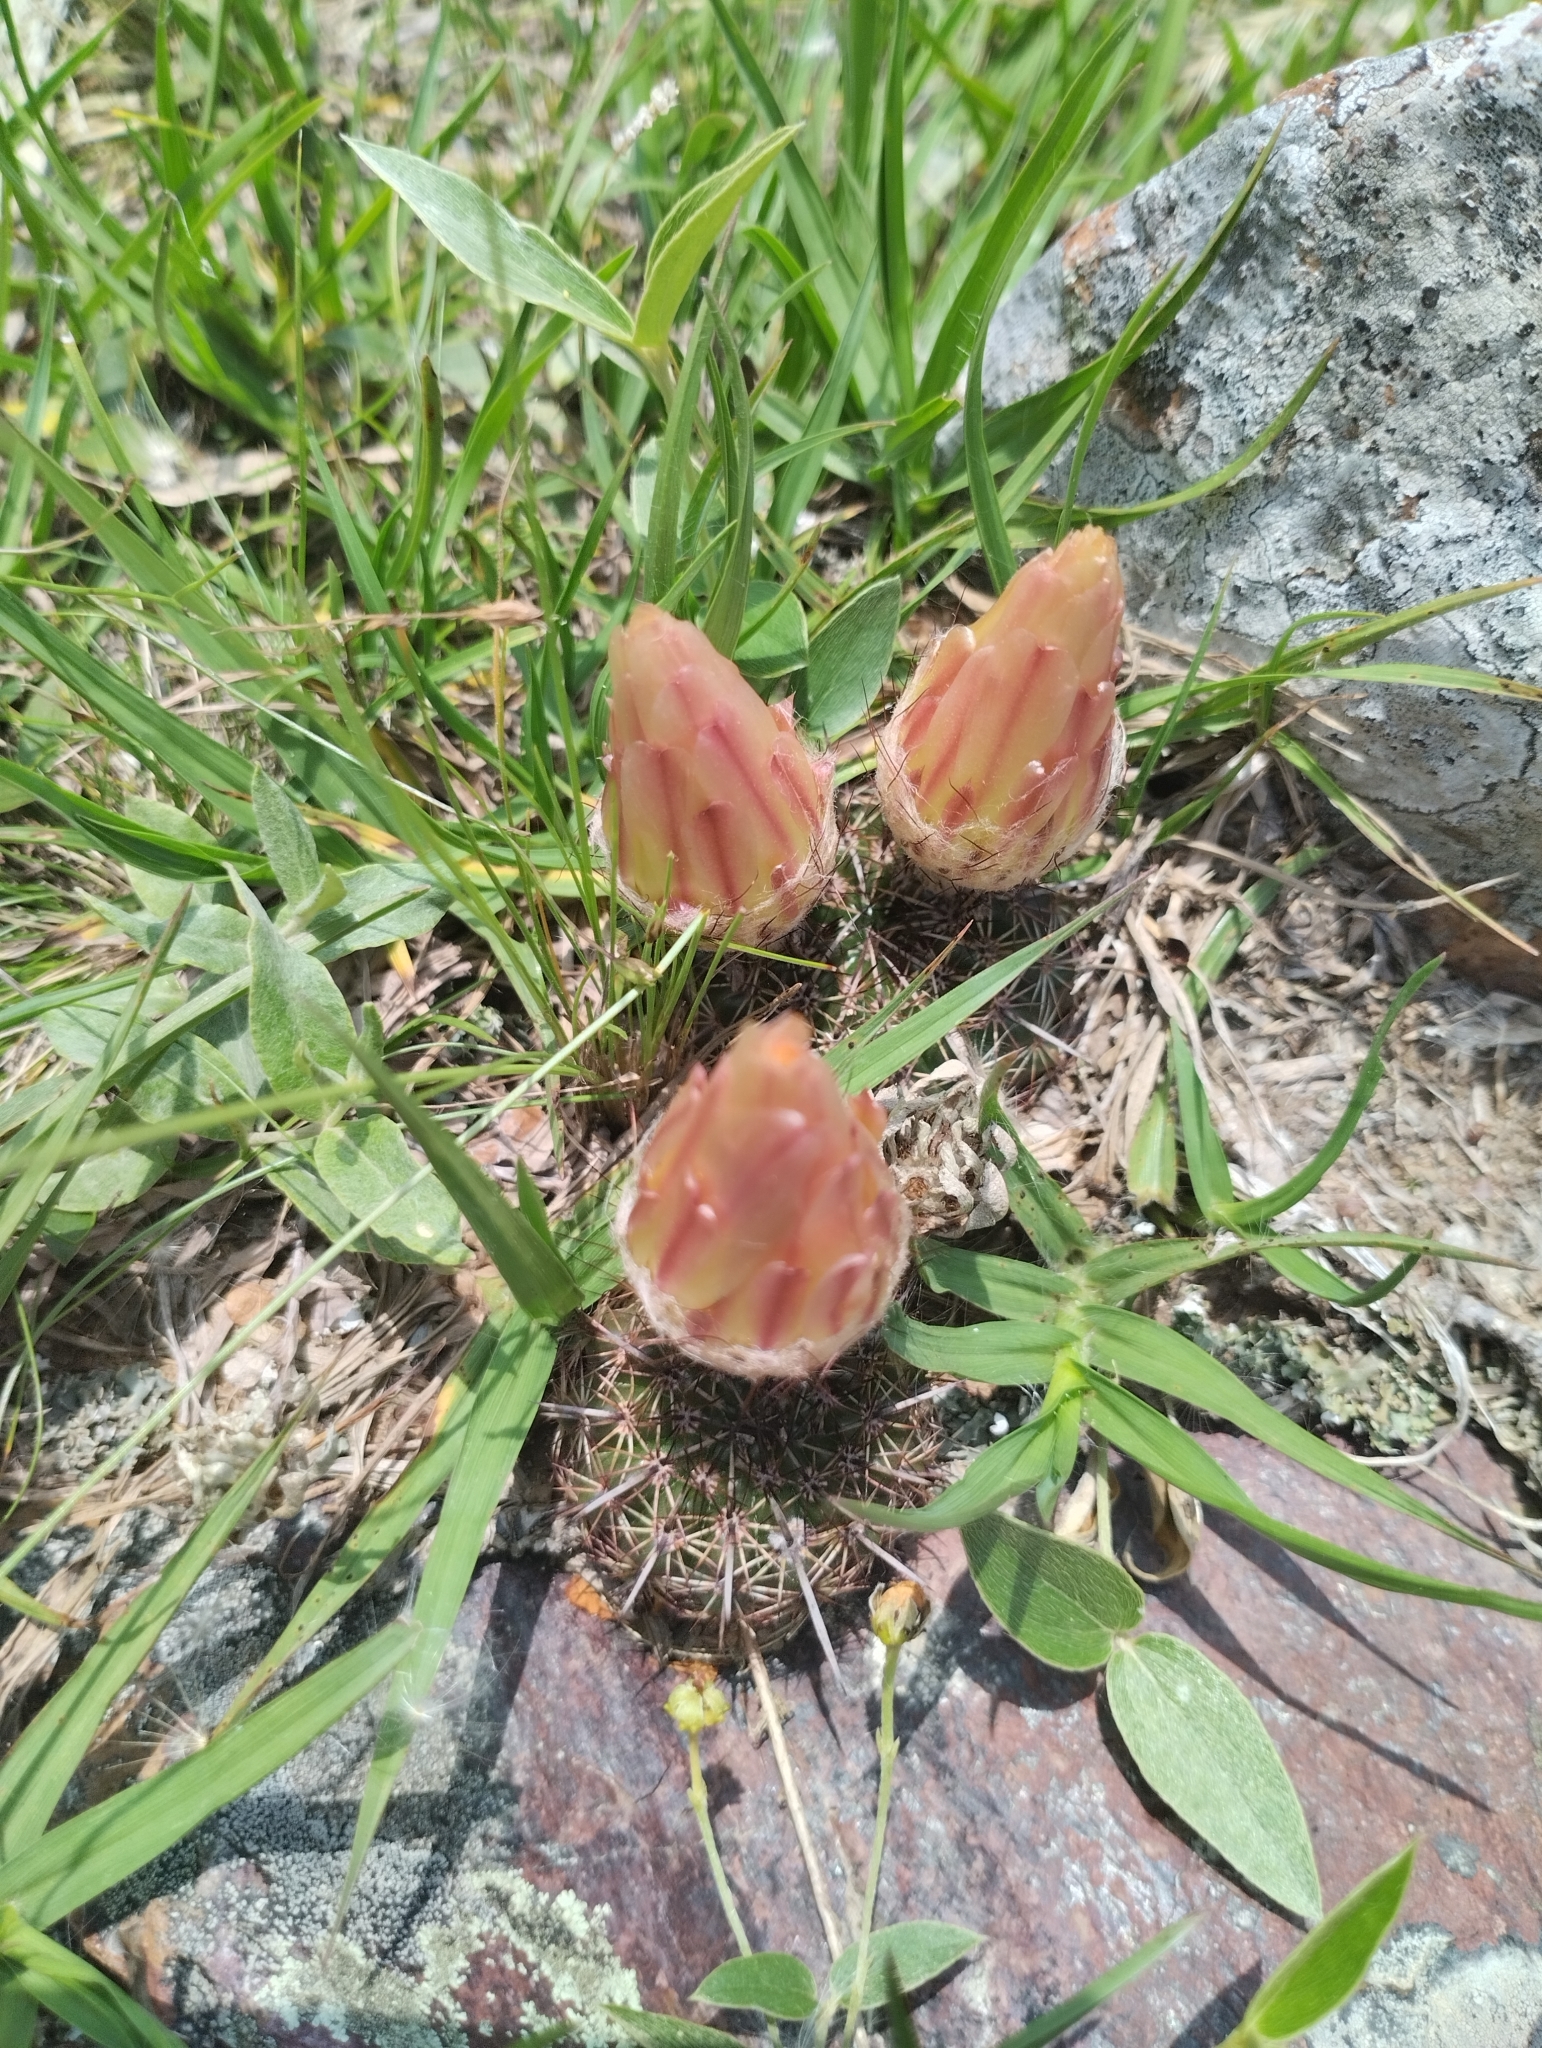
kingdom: Plantae
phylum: Tracheophyta
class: Magnoliopsida
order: Caryophyllales
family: Cactaceae
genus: Parodia
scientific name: Parodia mammulosa
